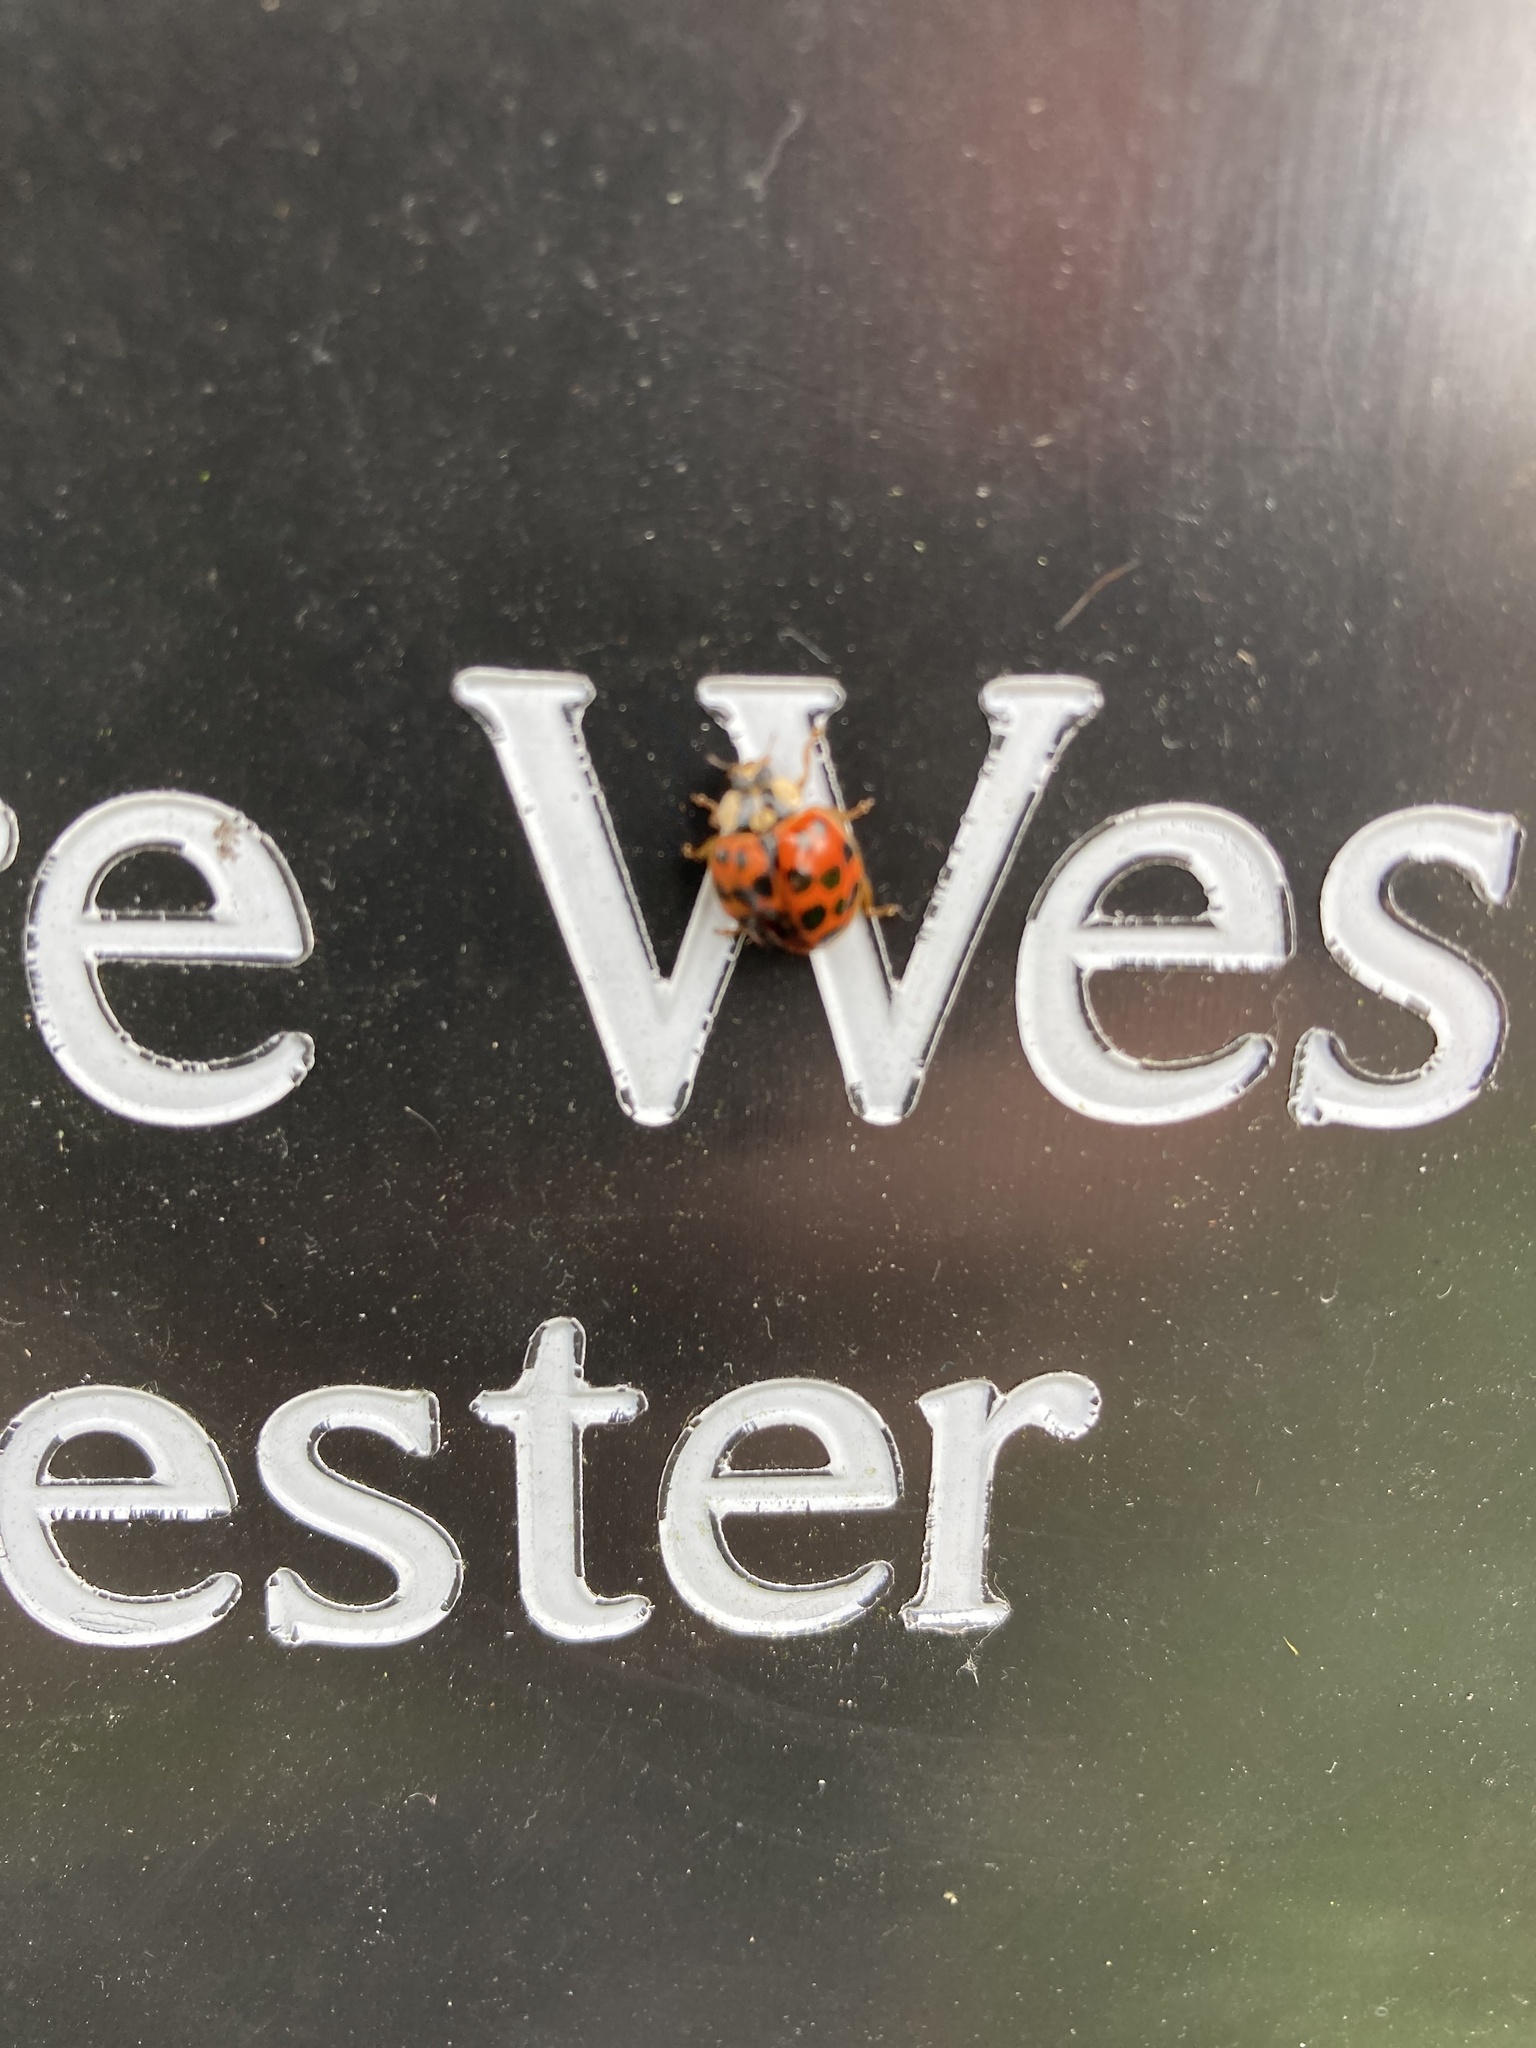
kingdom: Animalia
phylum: Arthropoda
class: Insecta
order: Coleoptera
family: Coccinellidae
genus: Harmonia
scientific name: Harmonia axyridis
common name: Harlequin ladybird
